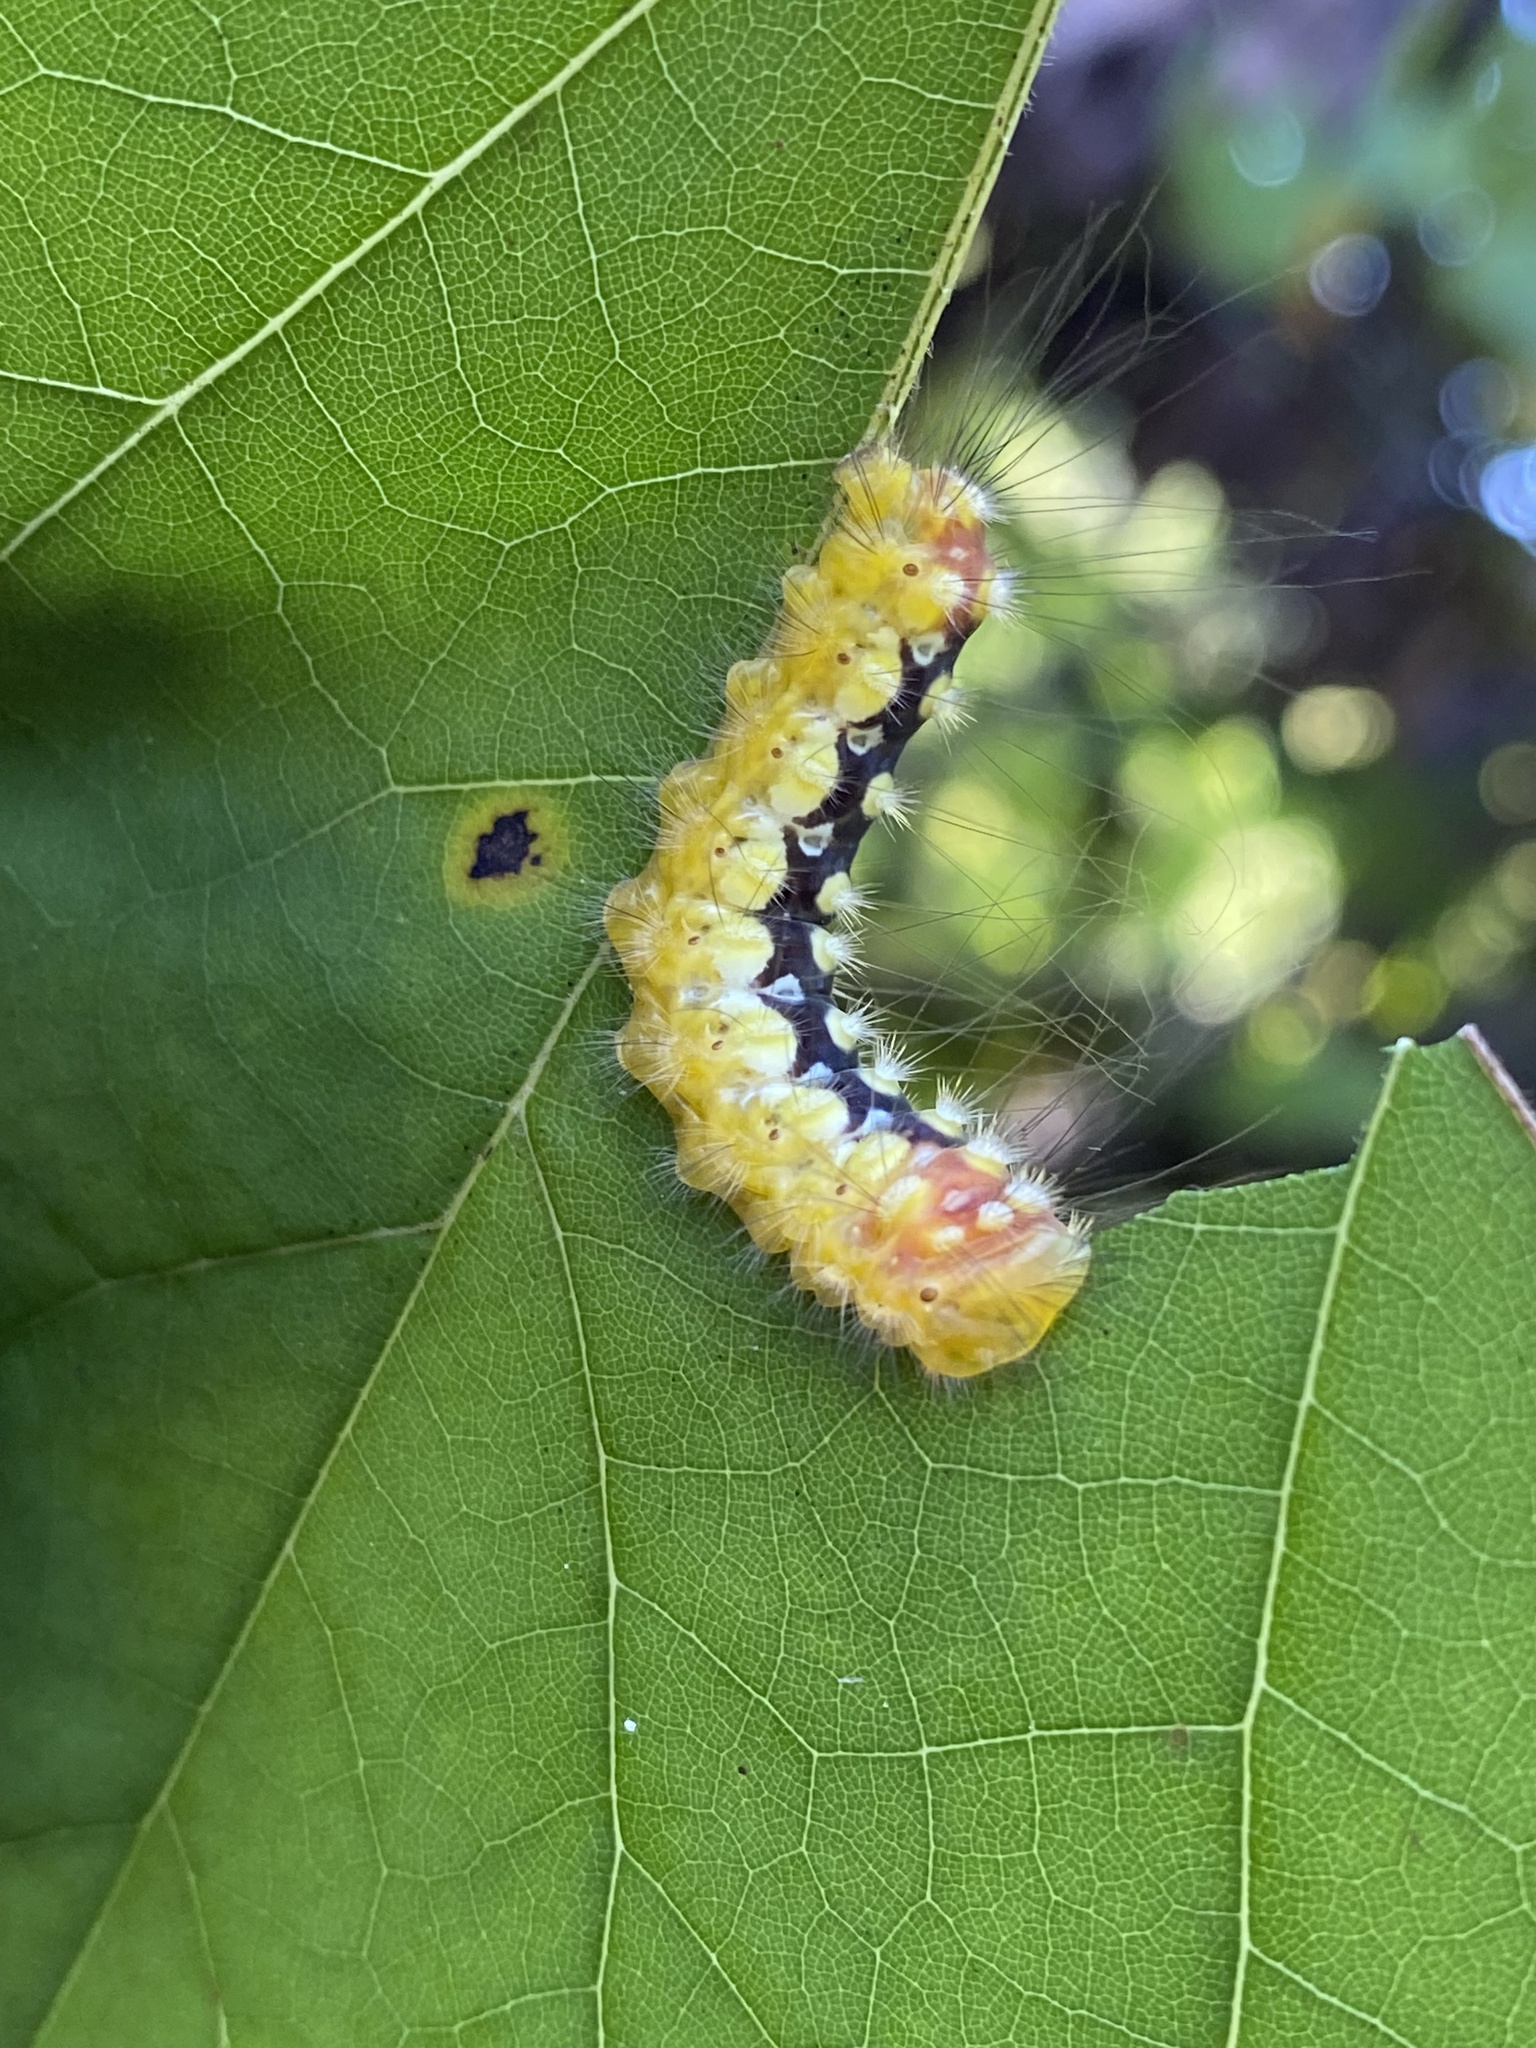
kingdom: Animalia
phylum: Arthropoda
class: Insecta
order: Lepidoptera
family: Megalopygidae
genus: Norape
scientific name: Norape cretata
